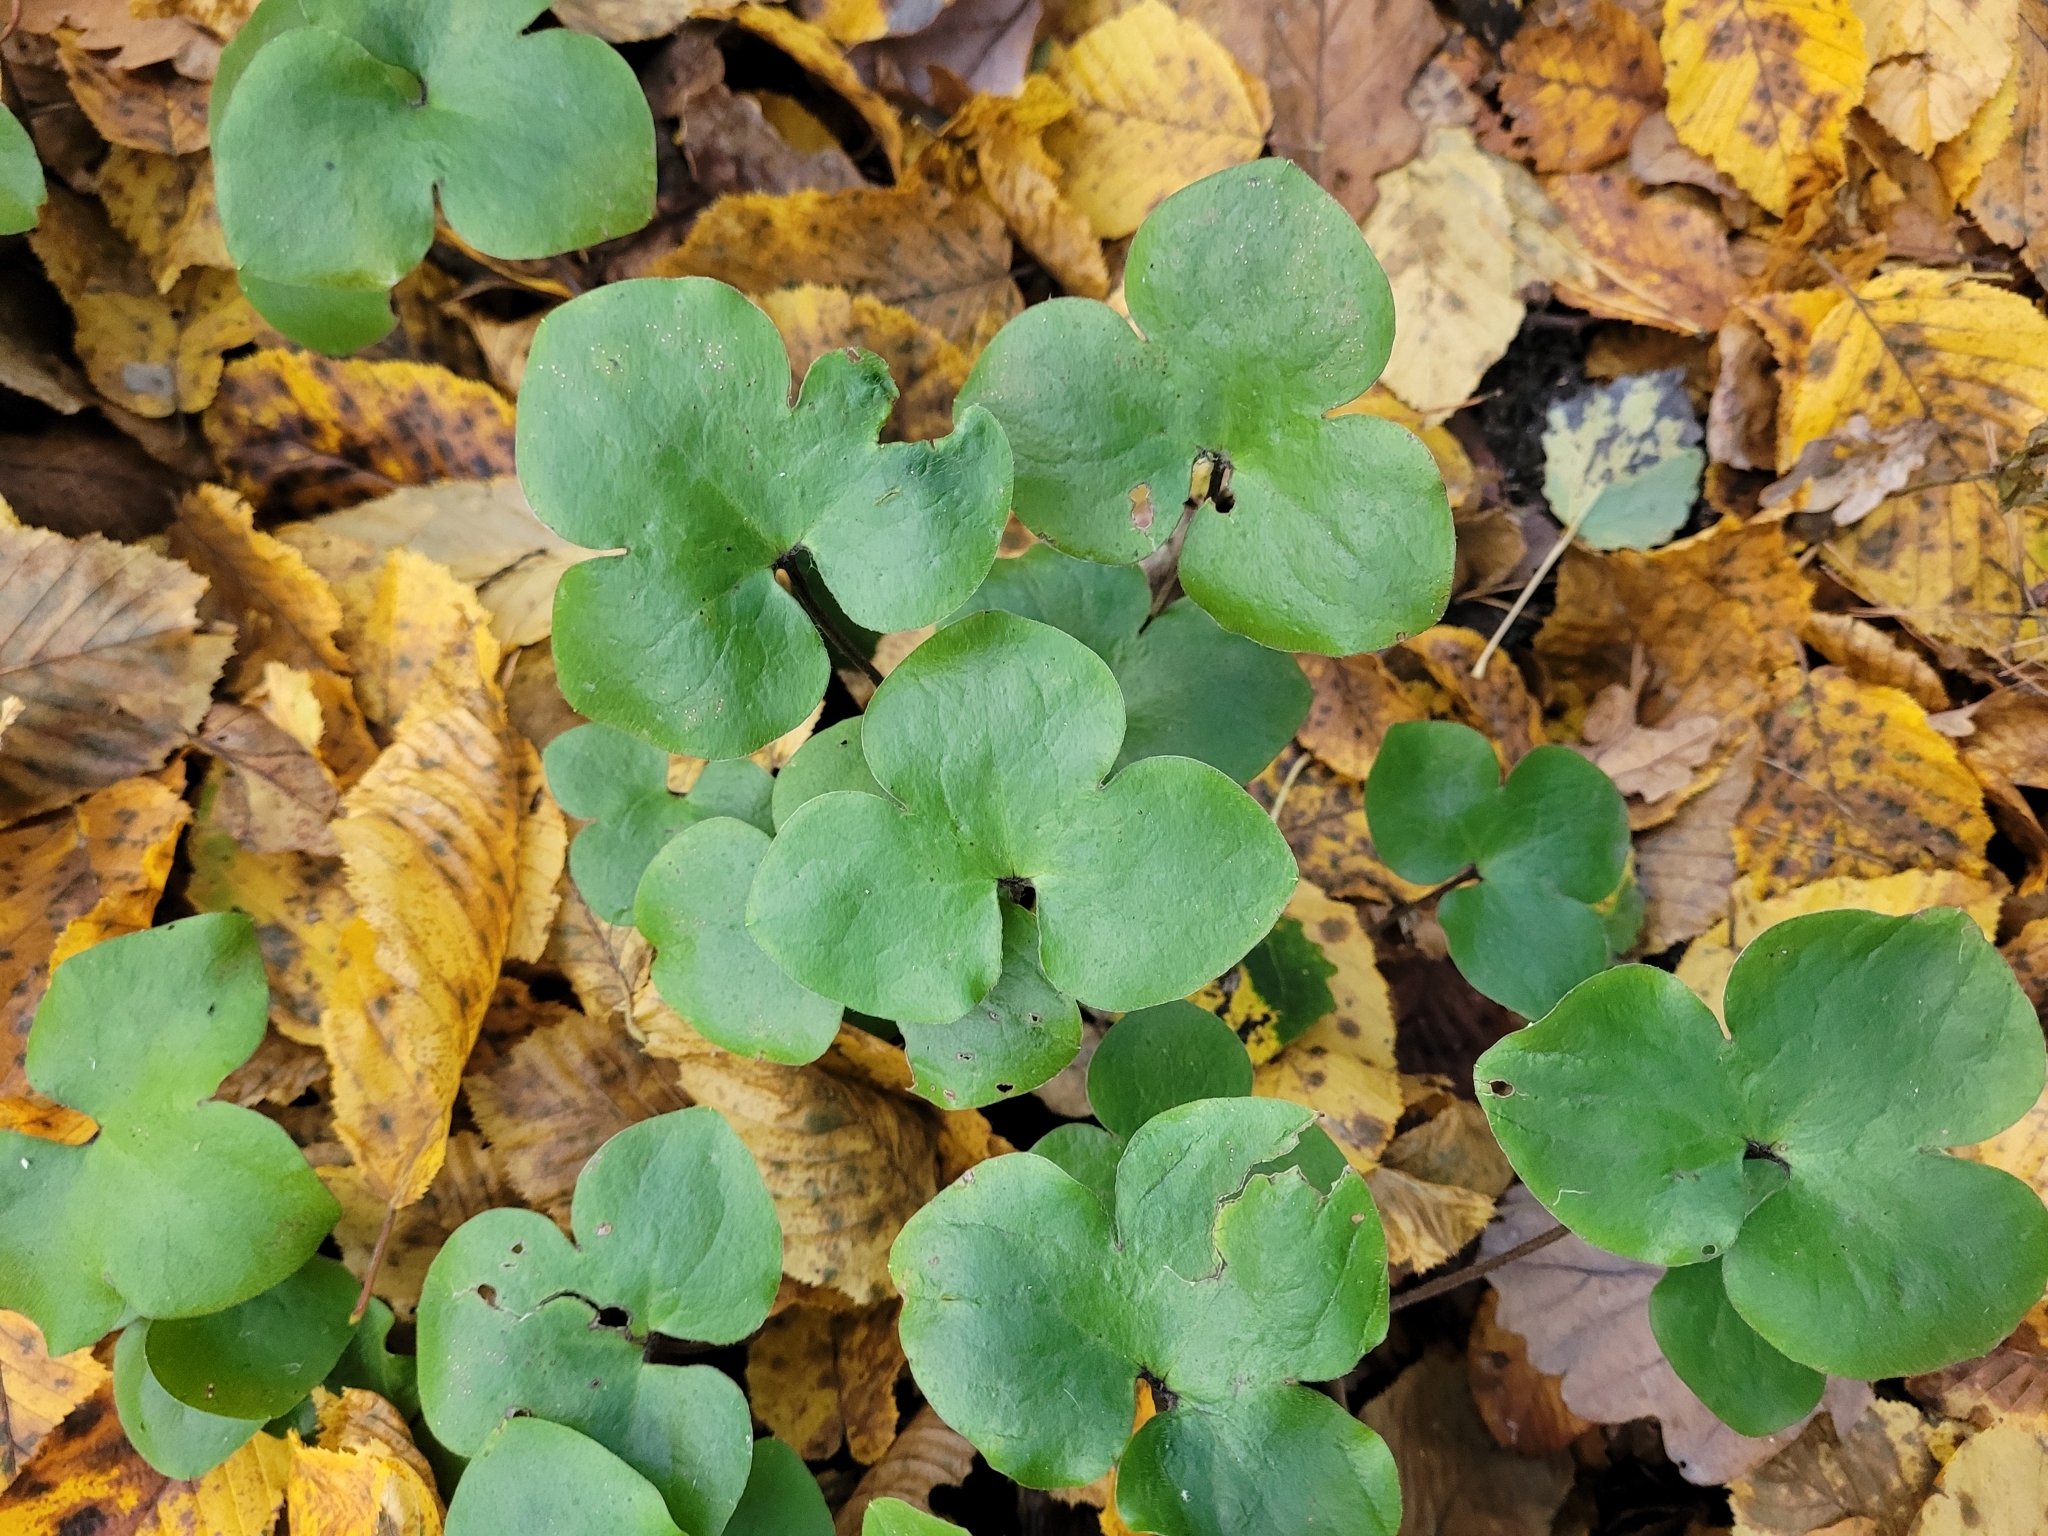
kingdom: Plantae
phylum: Tracheophyta
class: Magnoliopsida
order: Ranunculales
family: Ranunculaceae
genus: Hepatica
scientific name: Hepatica nobilis
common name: Liverleaf
